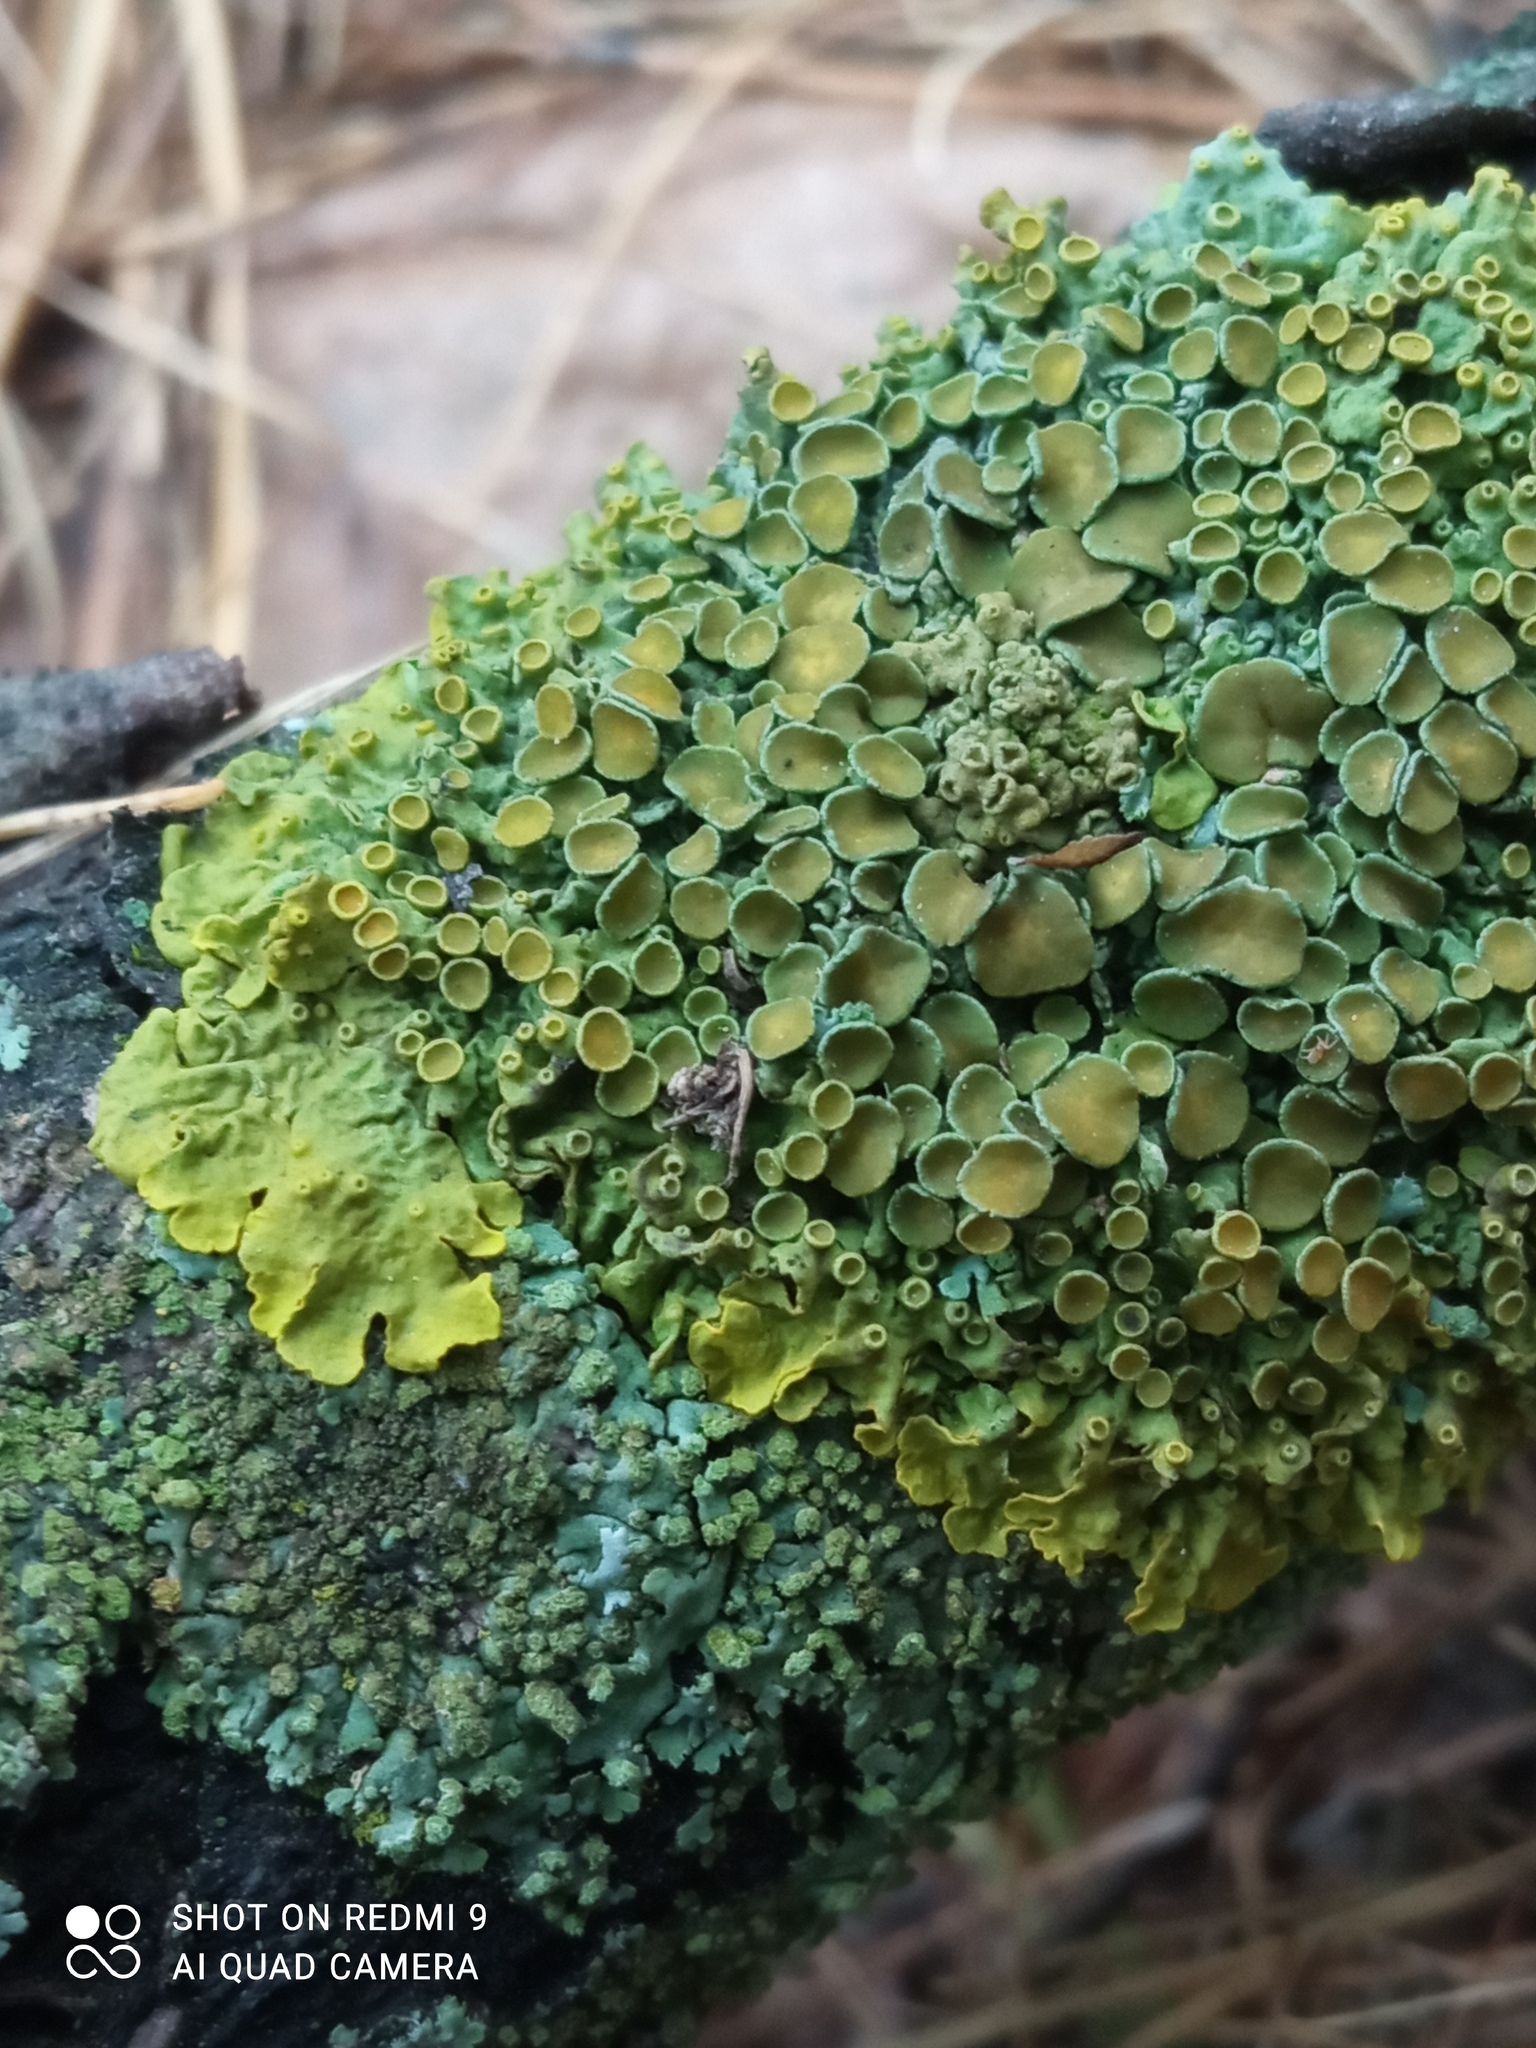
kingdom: Fungi
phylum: Ascomycota
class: Lecanoromycetes
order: Teloschistales
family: Teloschistaceae
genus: Xanthoria
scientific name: Xanthoria parietina
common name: Common orange lichen
